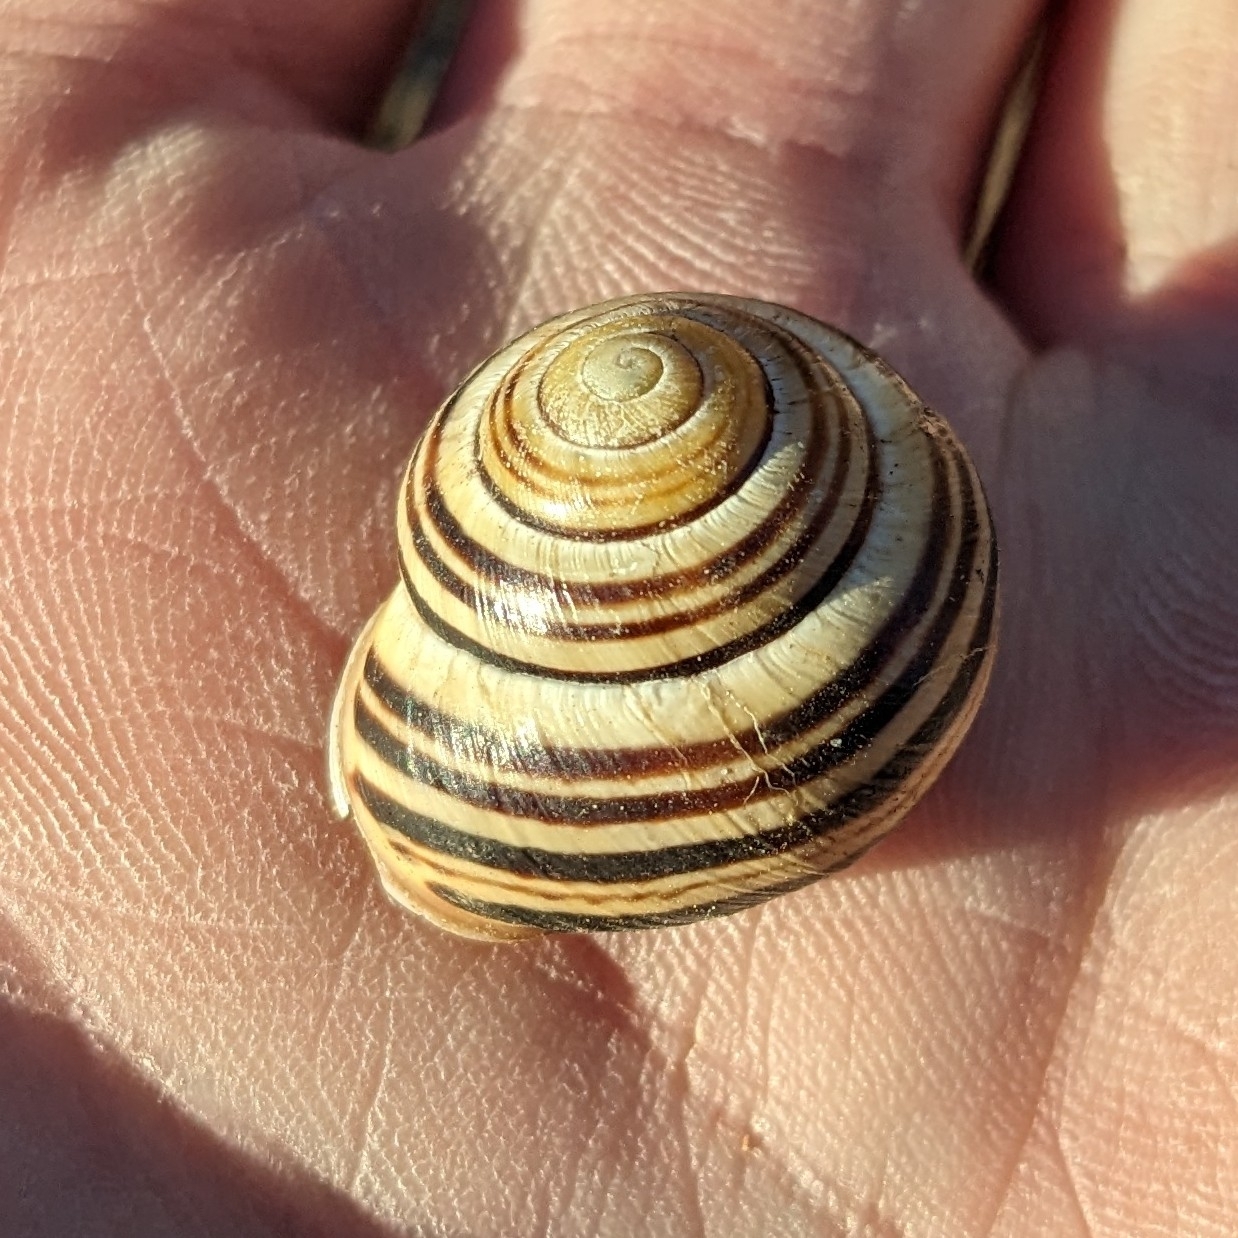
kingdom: Animalia
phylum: Mollusca
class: Gastropoda
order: Stylommatophora
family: Helicidae
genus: Cepaea
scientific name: Cepaea nemoralis
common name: Grovesnail
